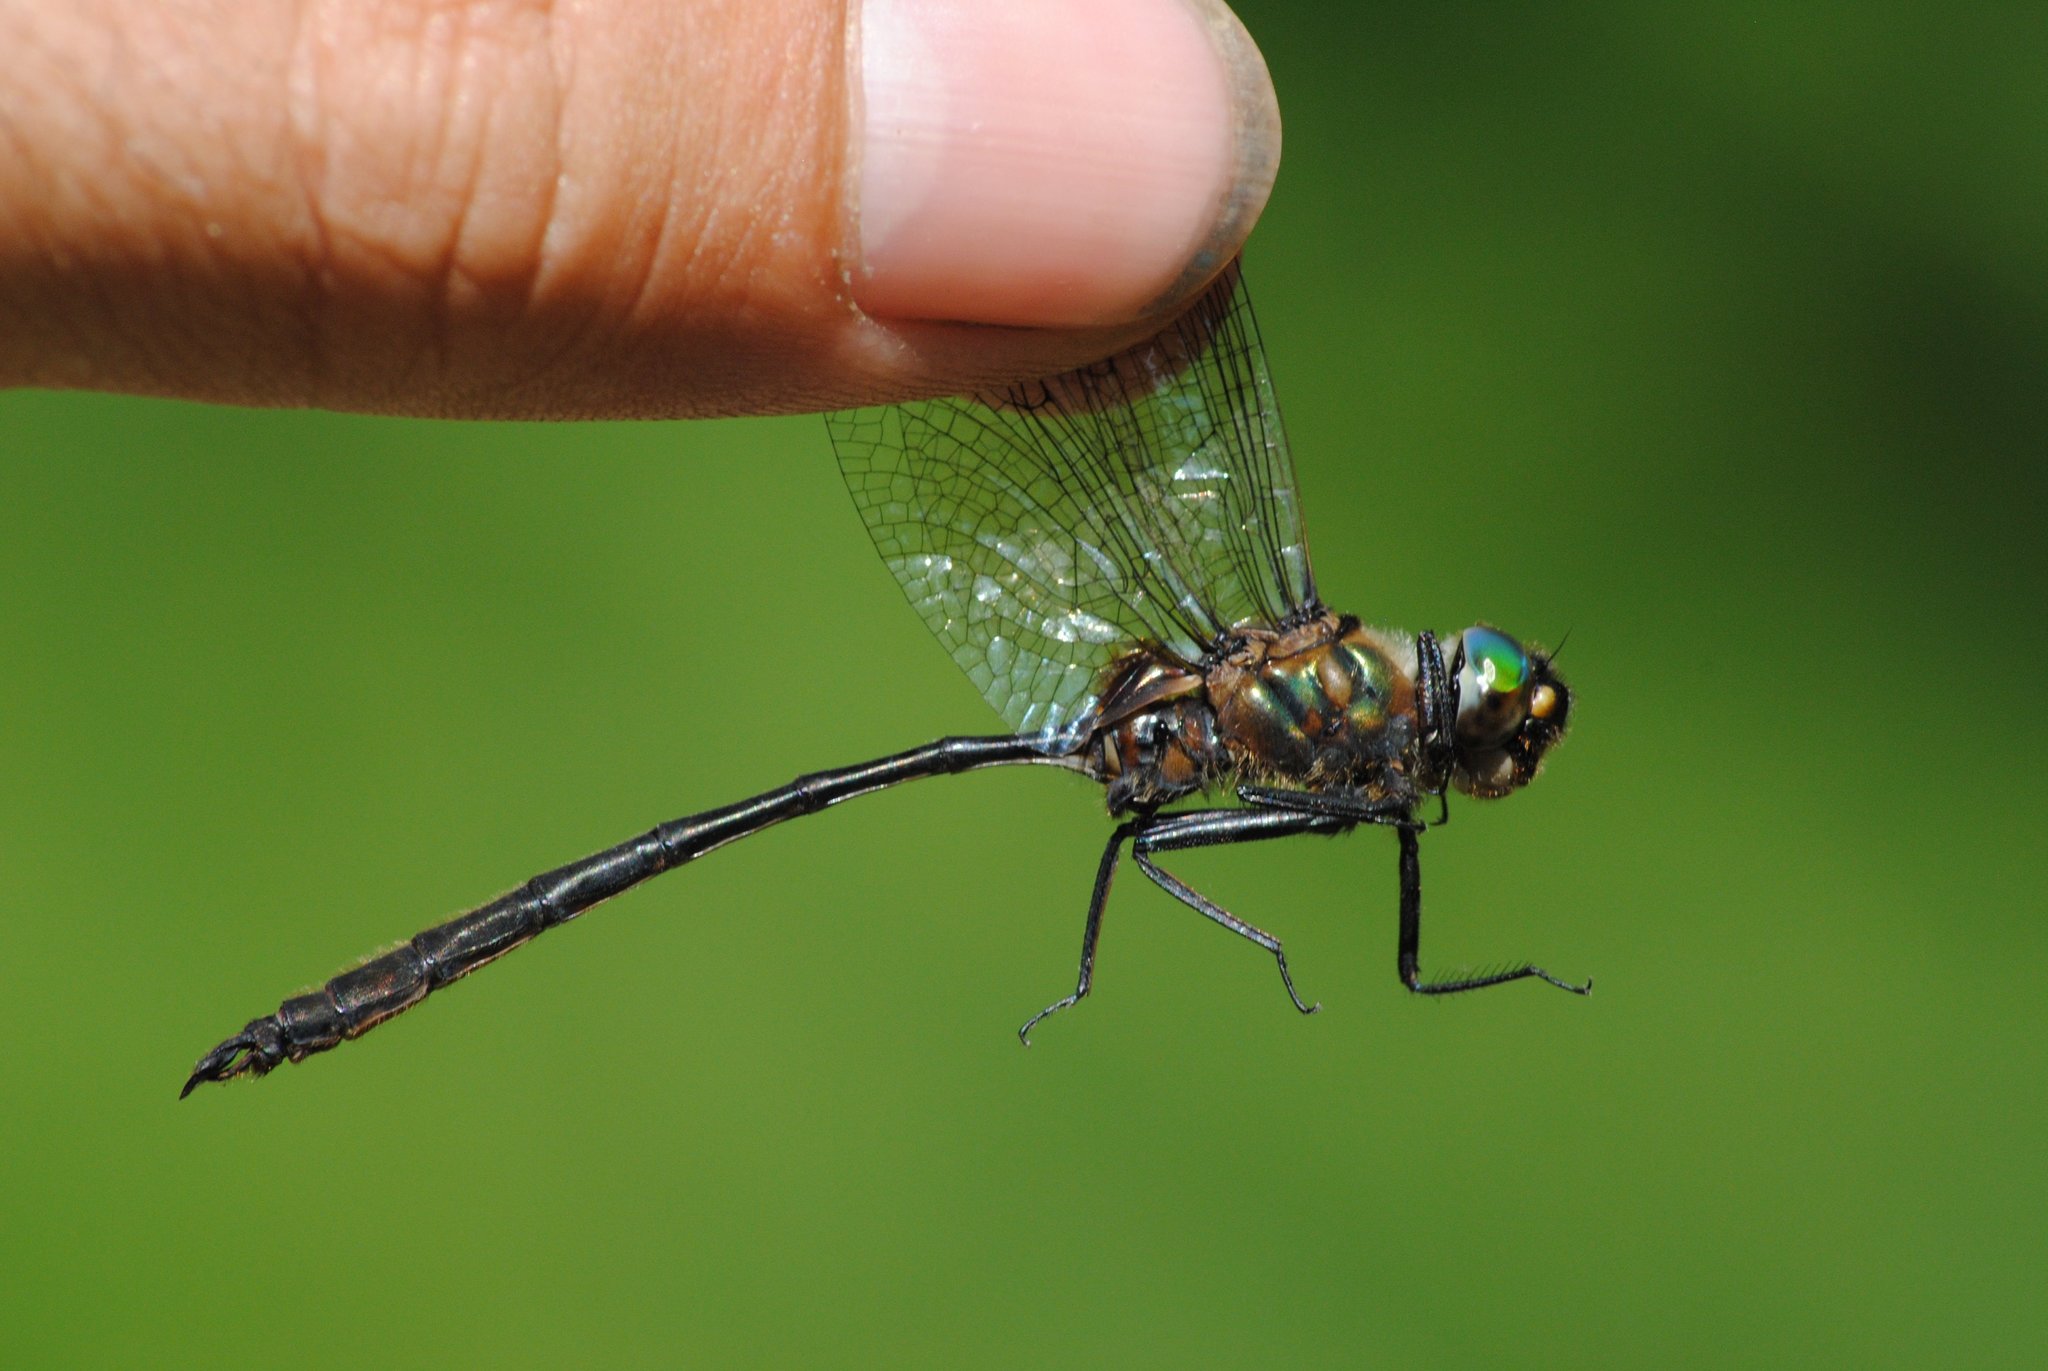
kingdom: Animalia
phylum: Arthropoda
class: Insecta
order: Odonata
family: Corduliidae
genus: Somatochlora
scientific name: Somatochlora franklini
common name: Delicate emerald
